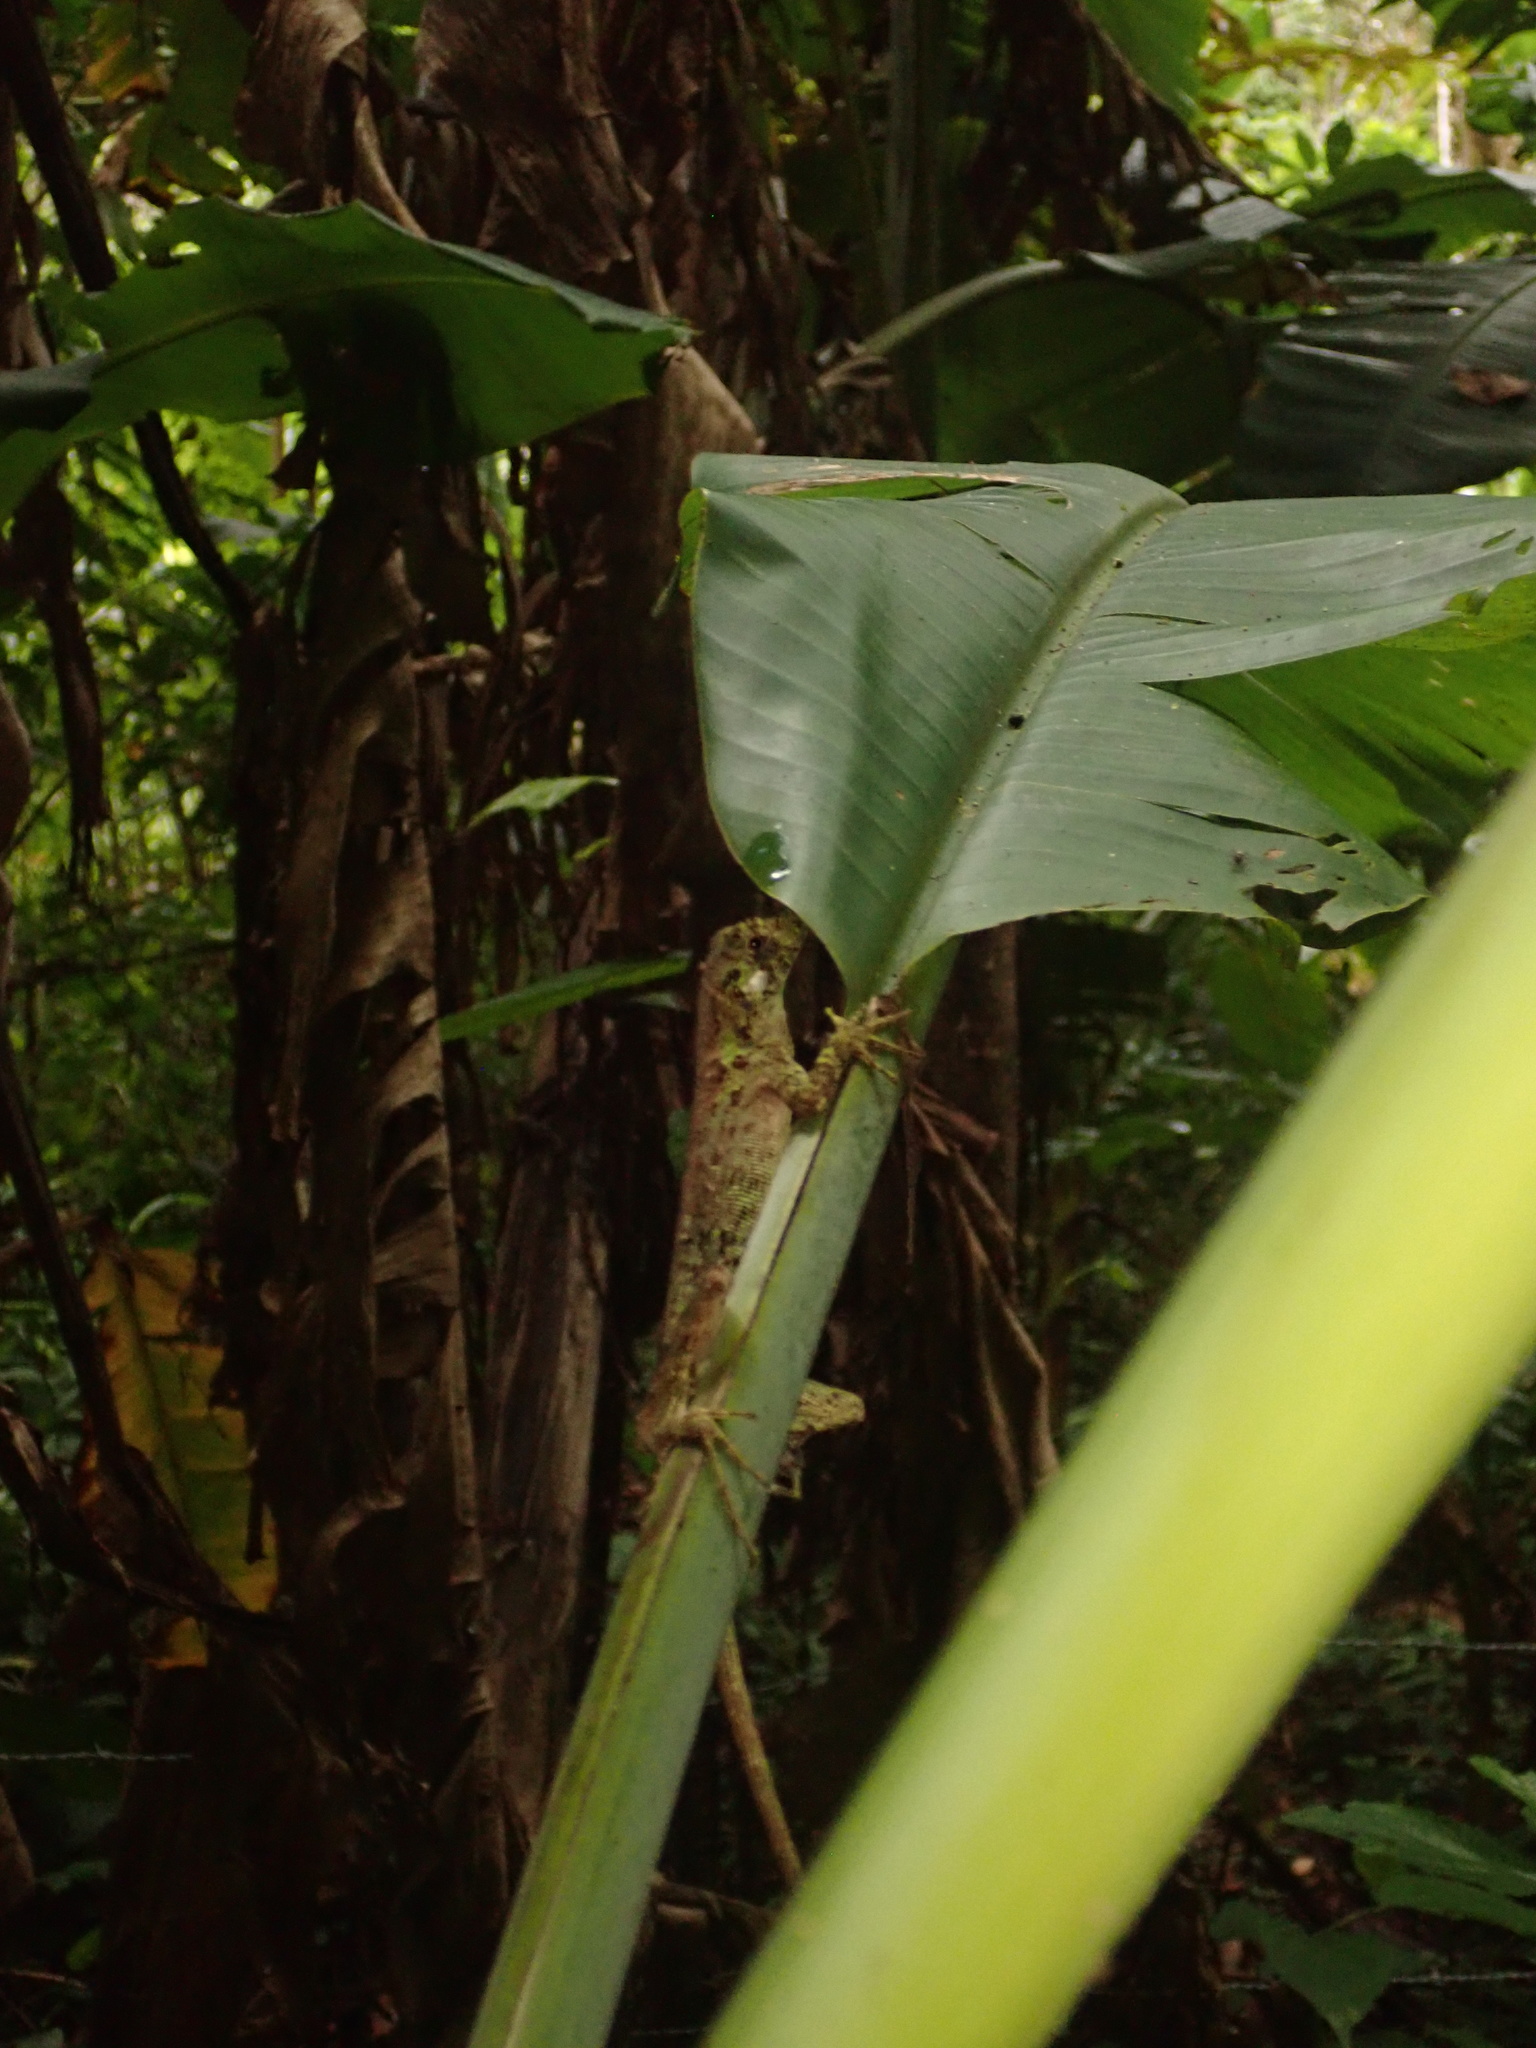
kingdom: Animalia
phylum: Chordata
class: Squamata
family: Dactyloidae
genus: Anolis
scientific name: Anolis capito
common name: Bighead anole
